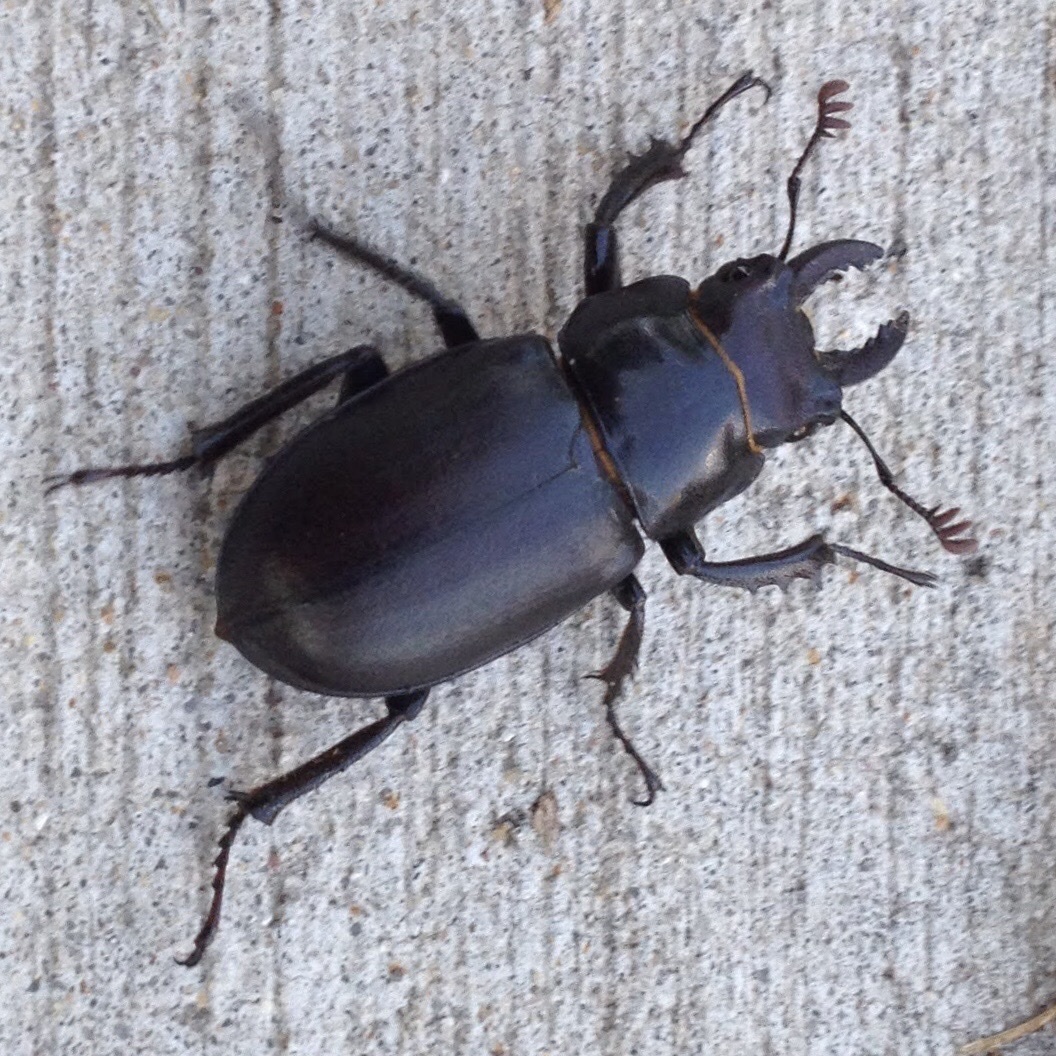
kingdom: Animalia
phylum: Arthropoda
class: Insecta
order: Coleoptera
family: Lucanidae
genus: Lucanus
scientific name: Lucanus placidus
